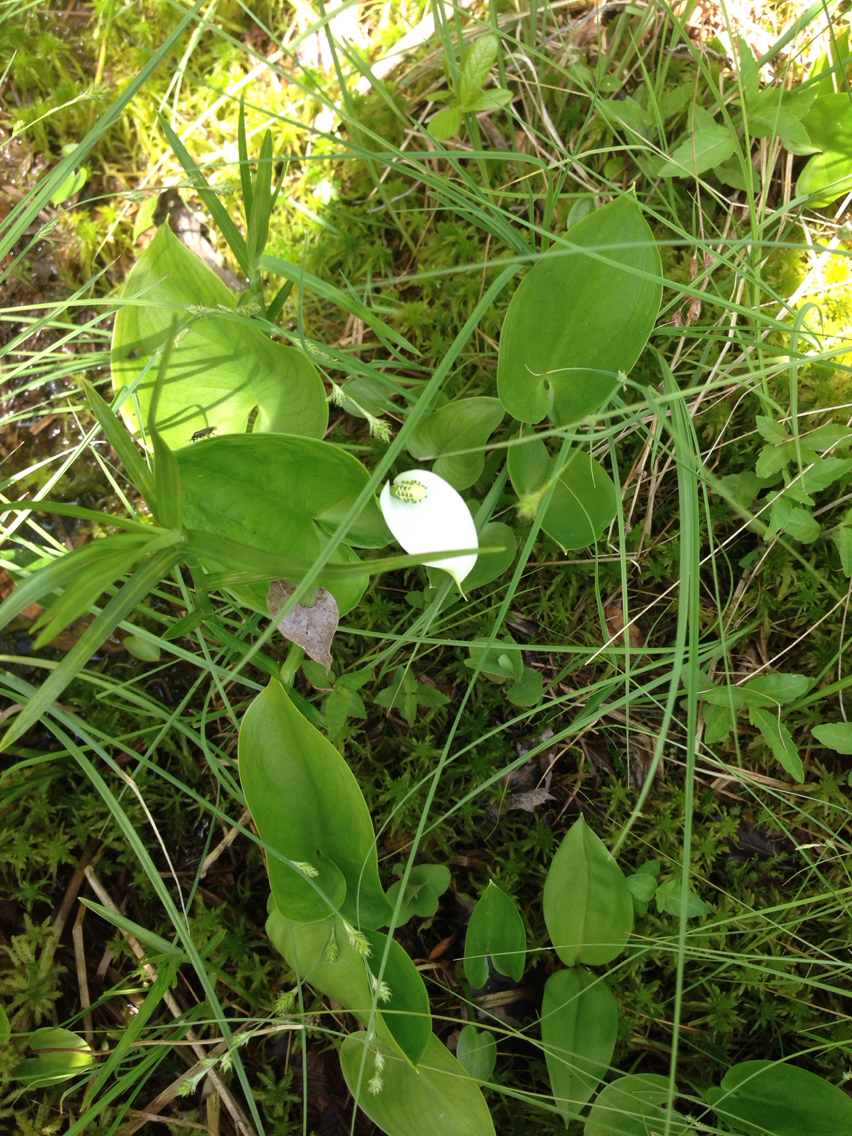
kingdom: Plantae
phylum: Tracheophyta
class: Liliopsida
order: Alismatales
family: Araceae
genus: Calla
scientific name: Calla palustris
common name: Bog arum
